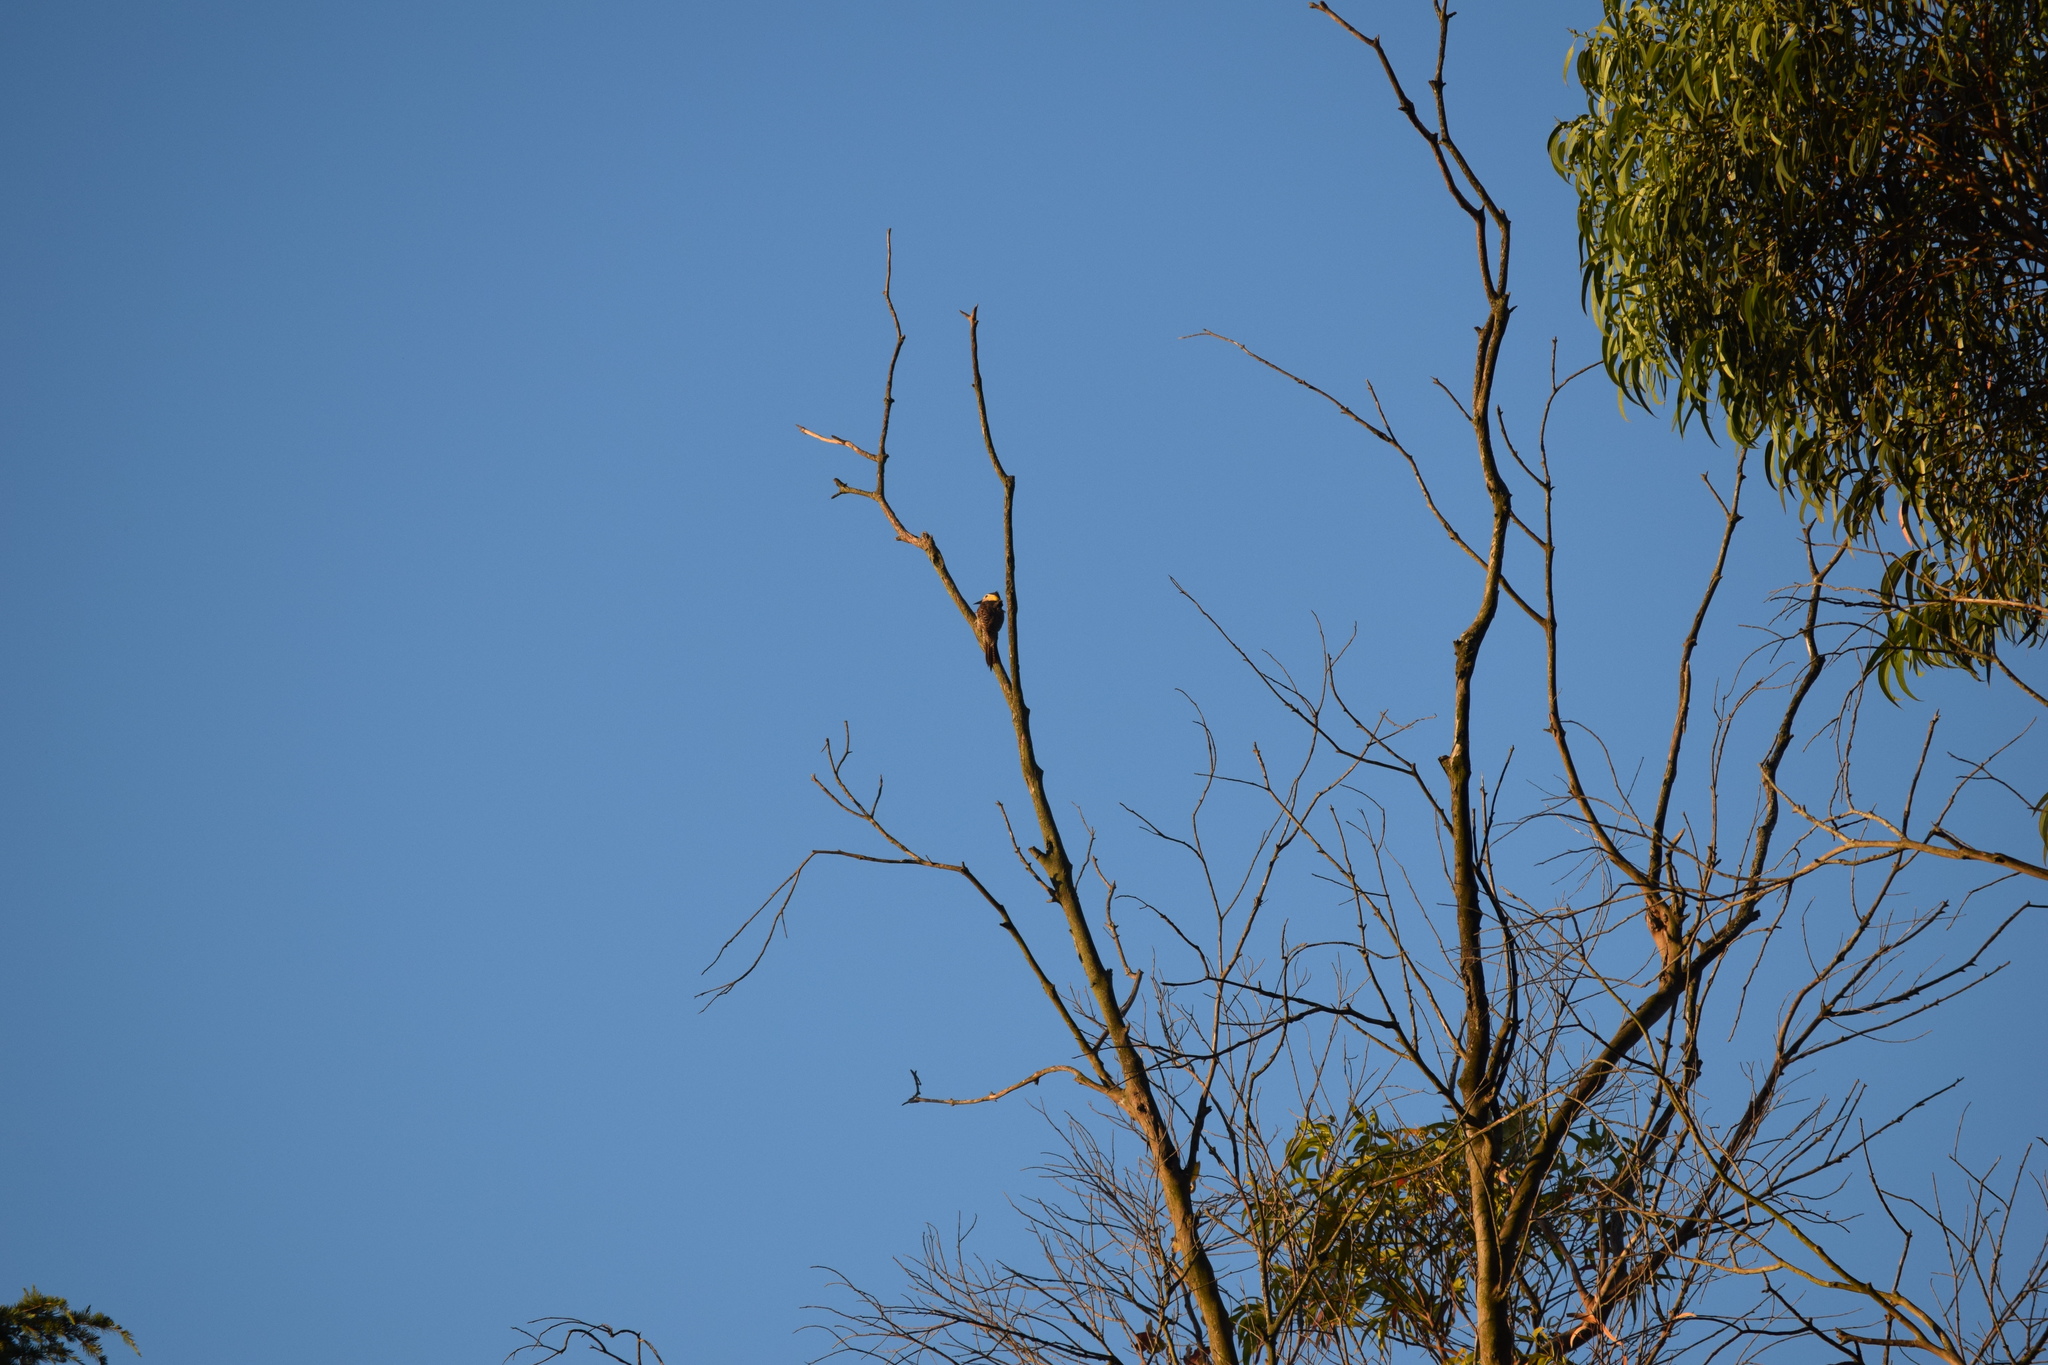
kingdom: Animalia
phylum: Chordata
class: Aves
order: Piciformes
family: Picidae
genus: Colaptes
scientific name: Colaptes campestris
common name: Campo flicker
